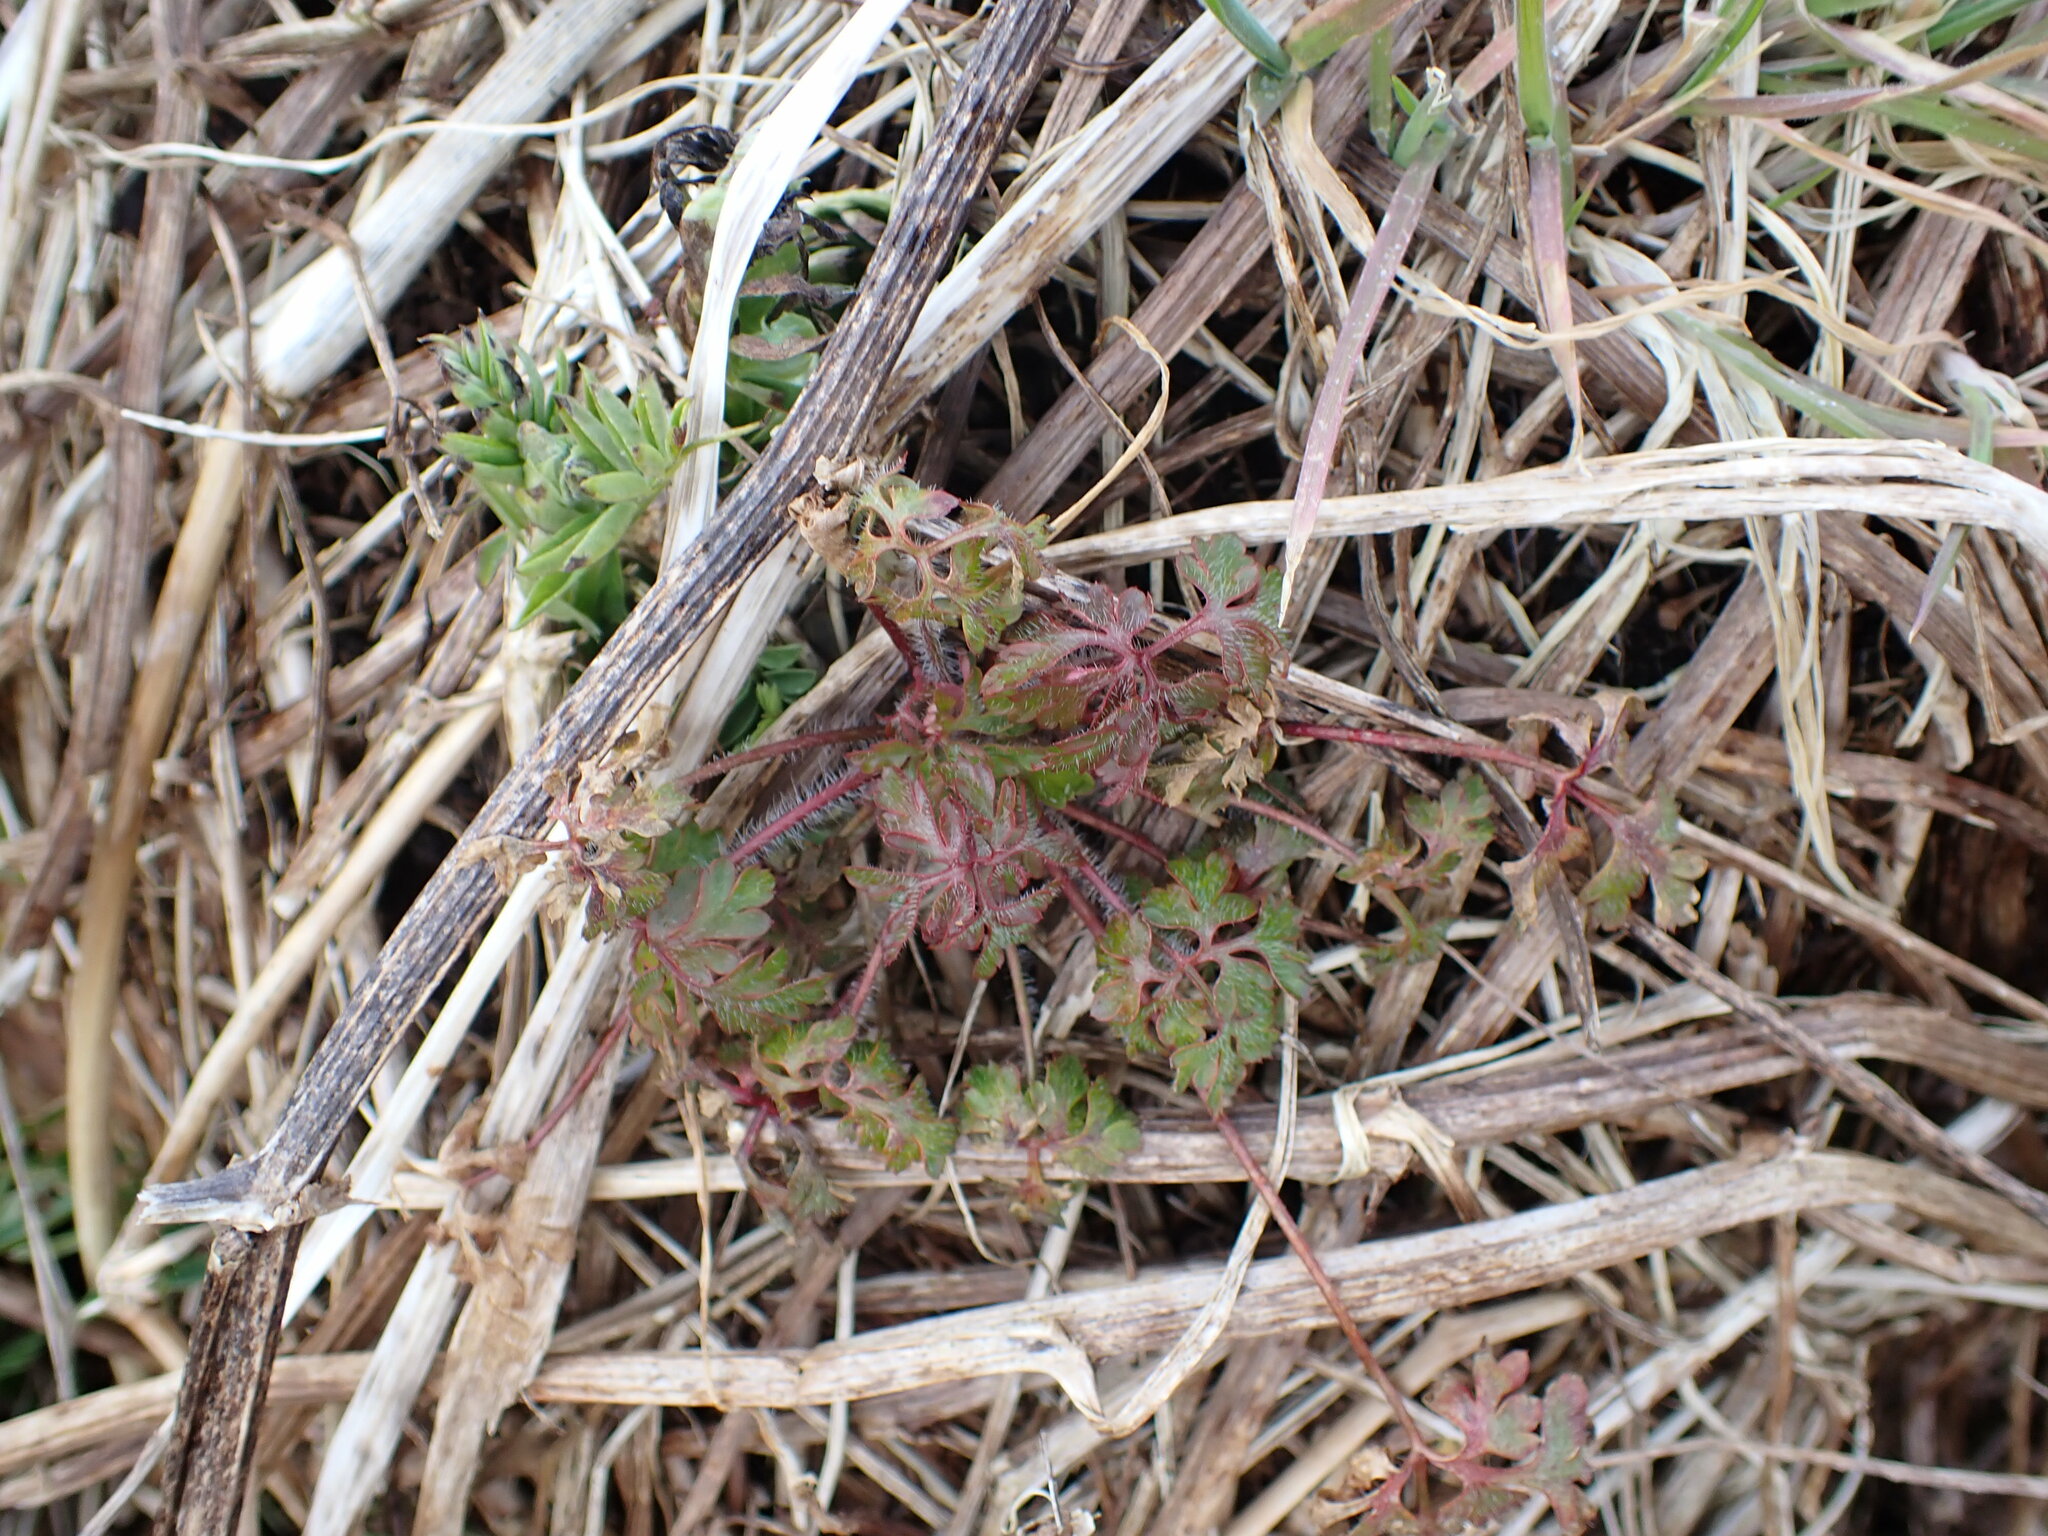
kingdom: Plantae
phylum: Tracheophyta
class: Magnoliopsida
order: Geraniales
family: Geraniaceae
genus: Geranium
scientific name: Geranium robertianum
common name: Herb-robert
